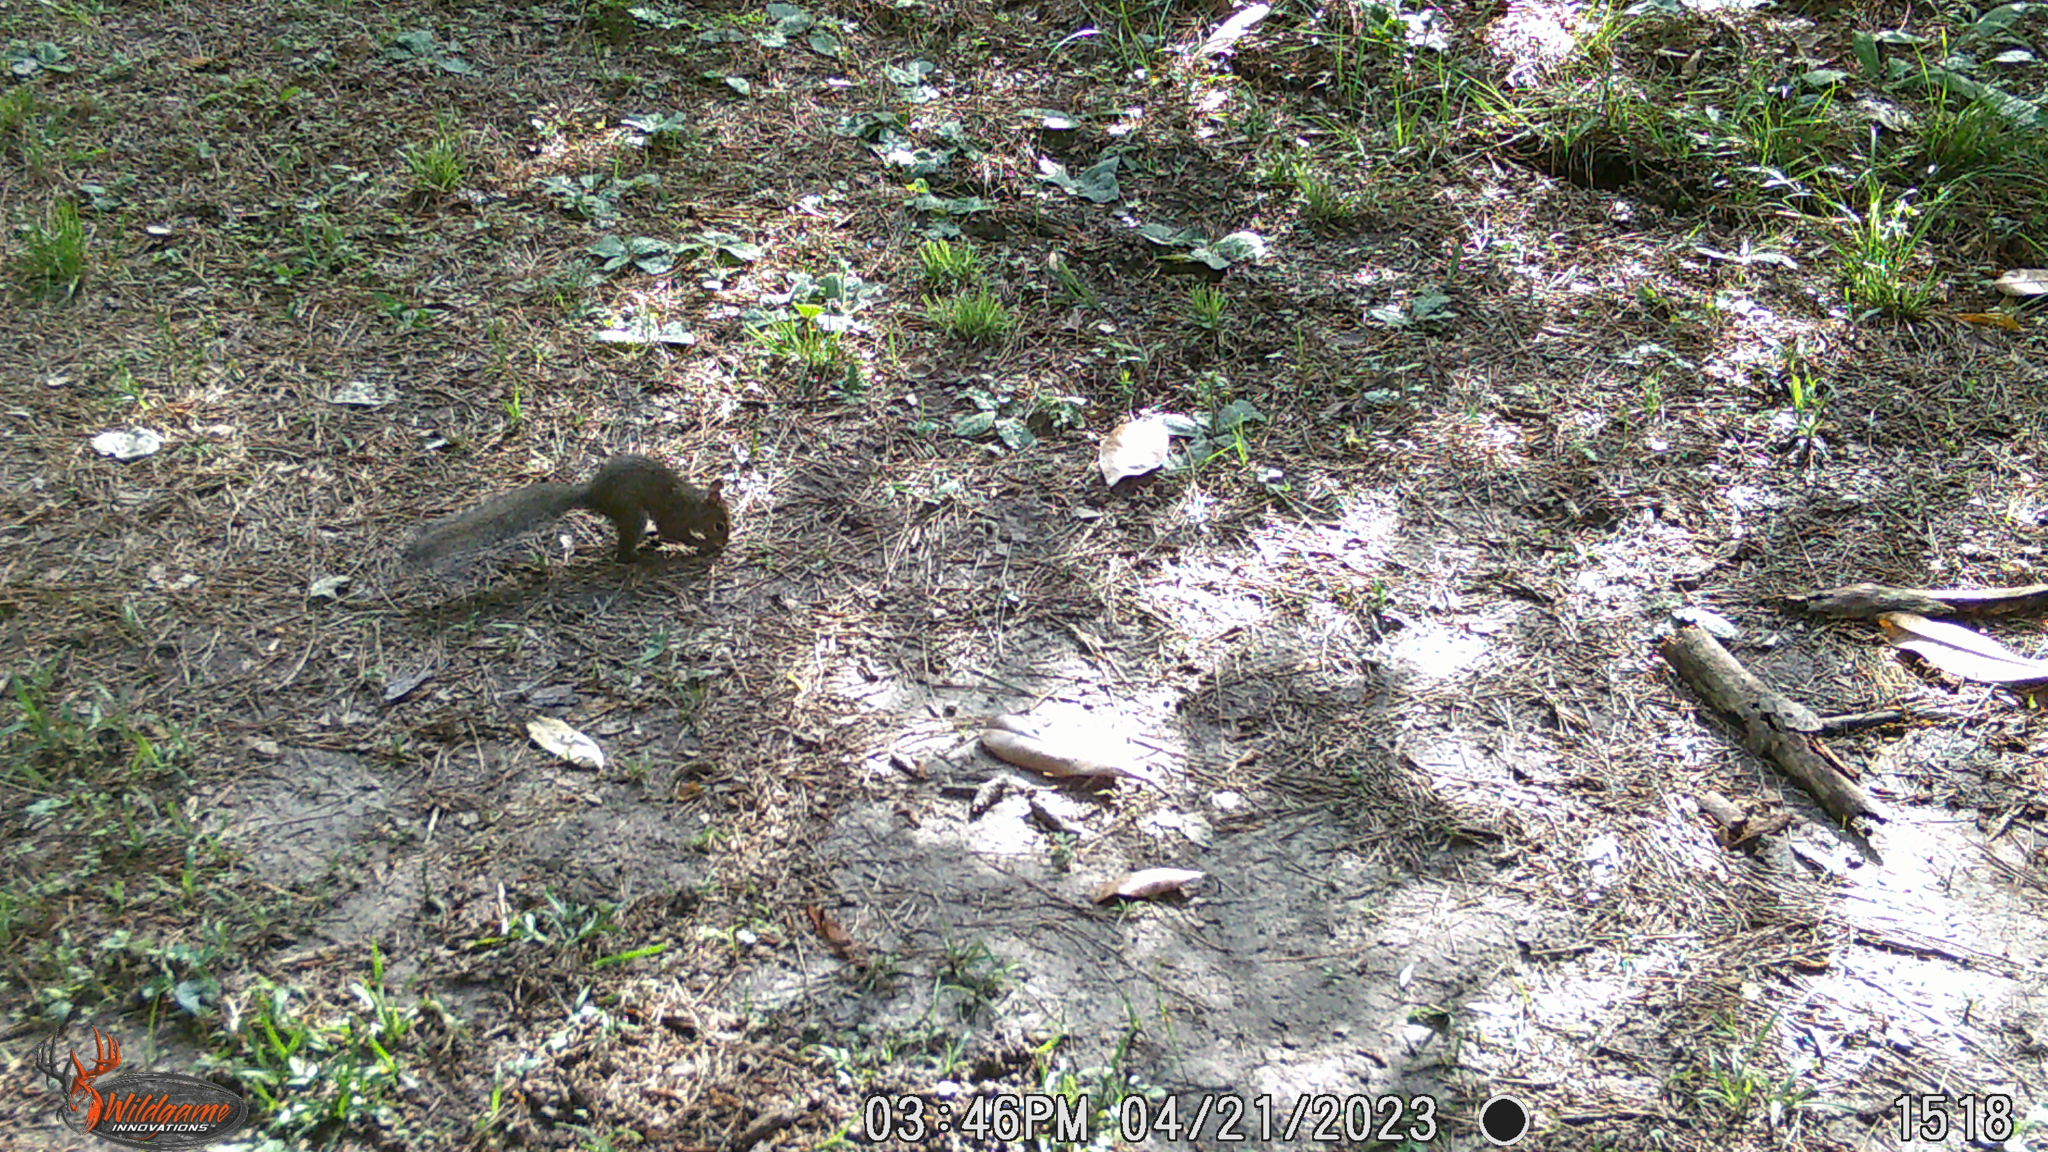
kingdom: Animalia
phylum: Chordata
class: Mammalia
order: Rodentia
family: Sciuridae
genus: Sciurus
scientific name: Sciurus carolinensis
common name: Eastern gray squirrel
